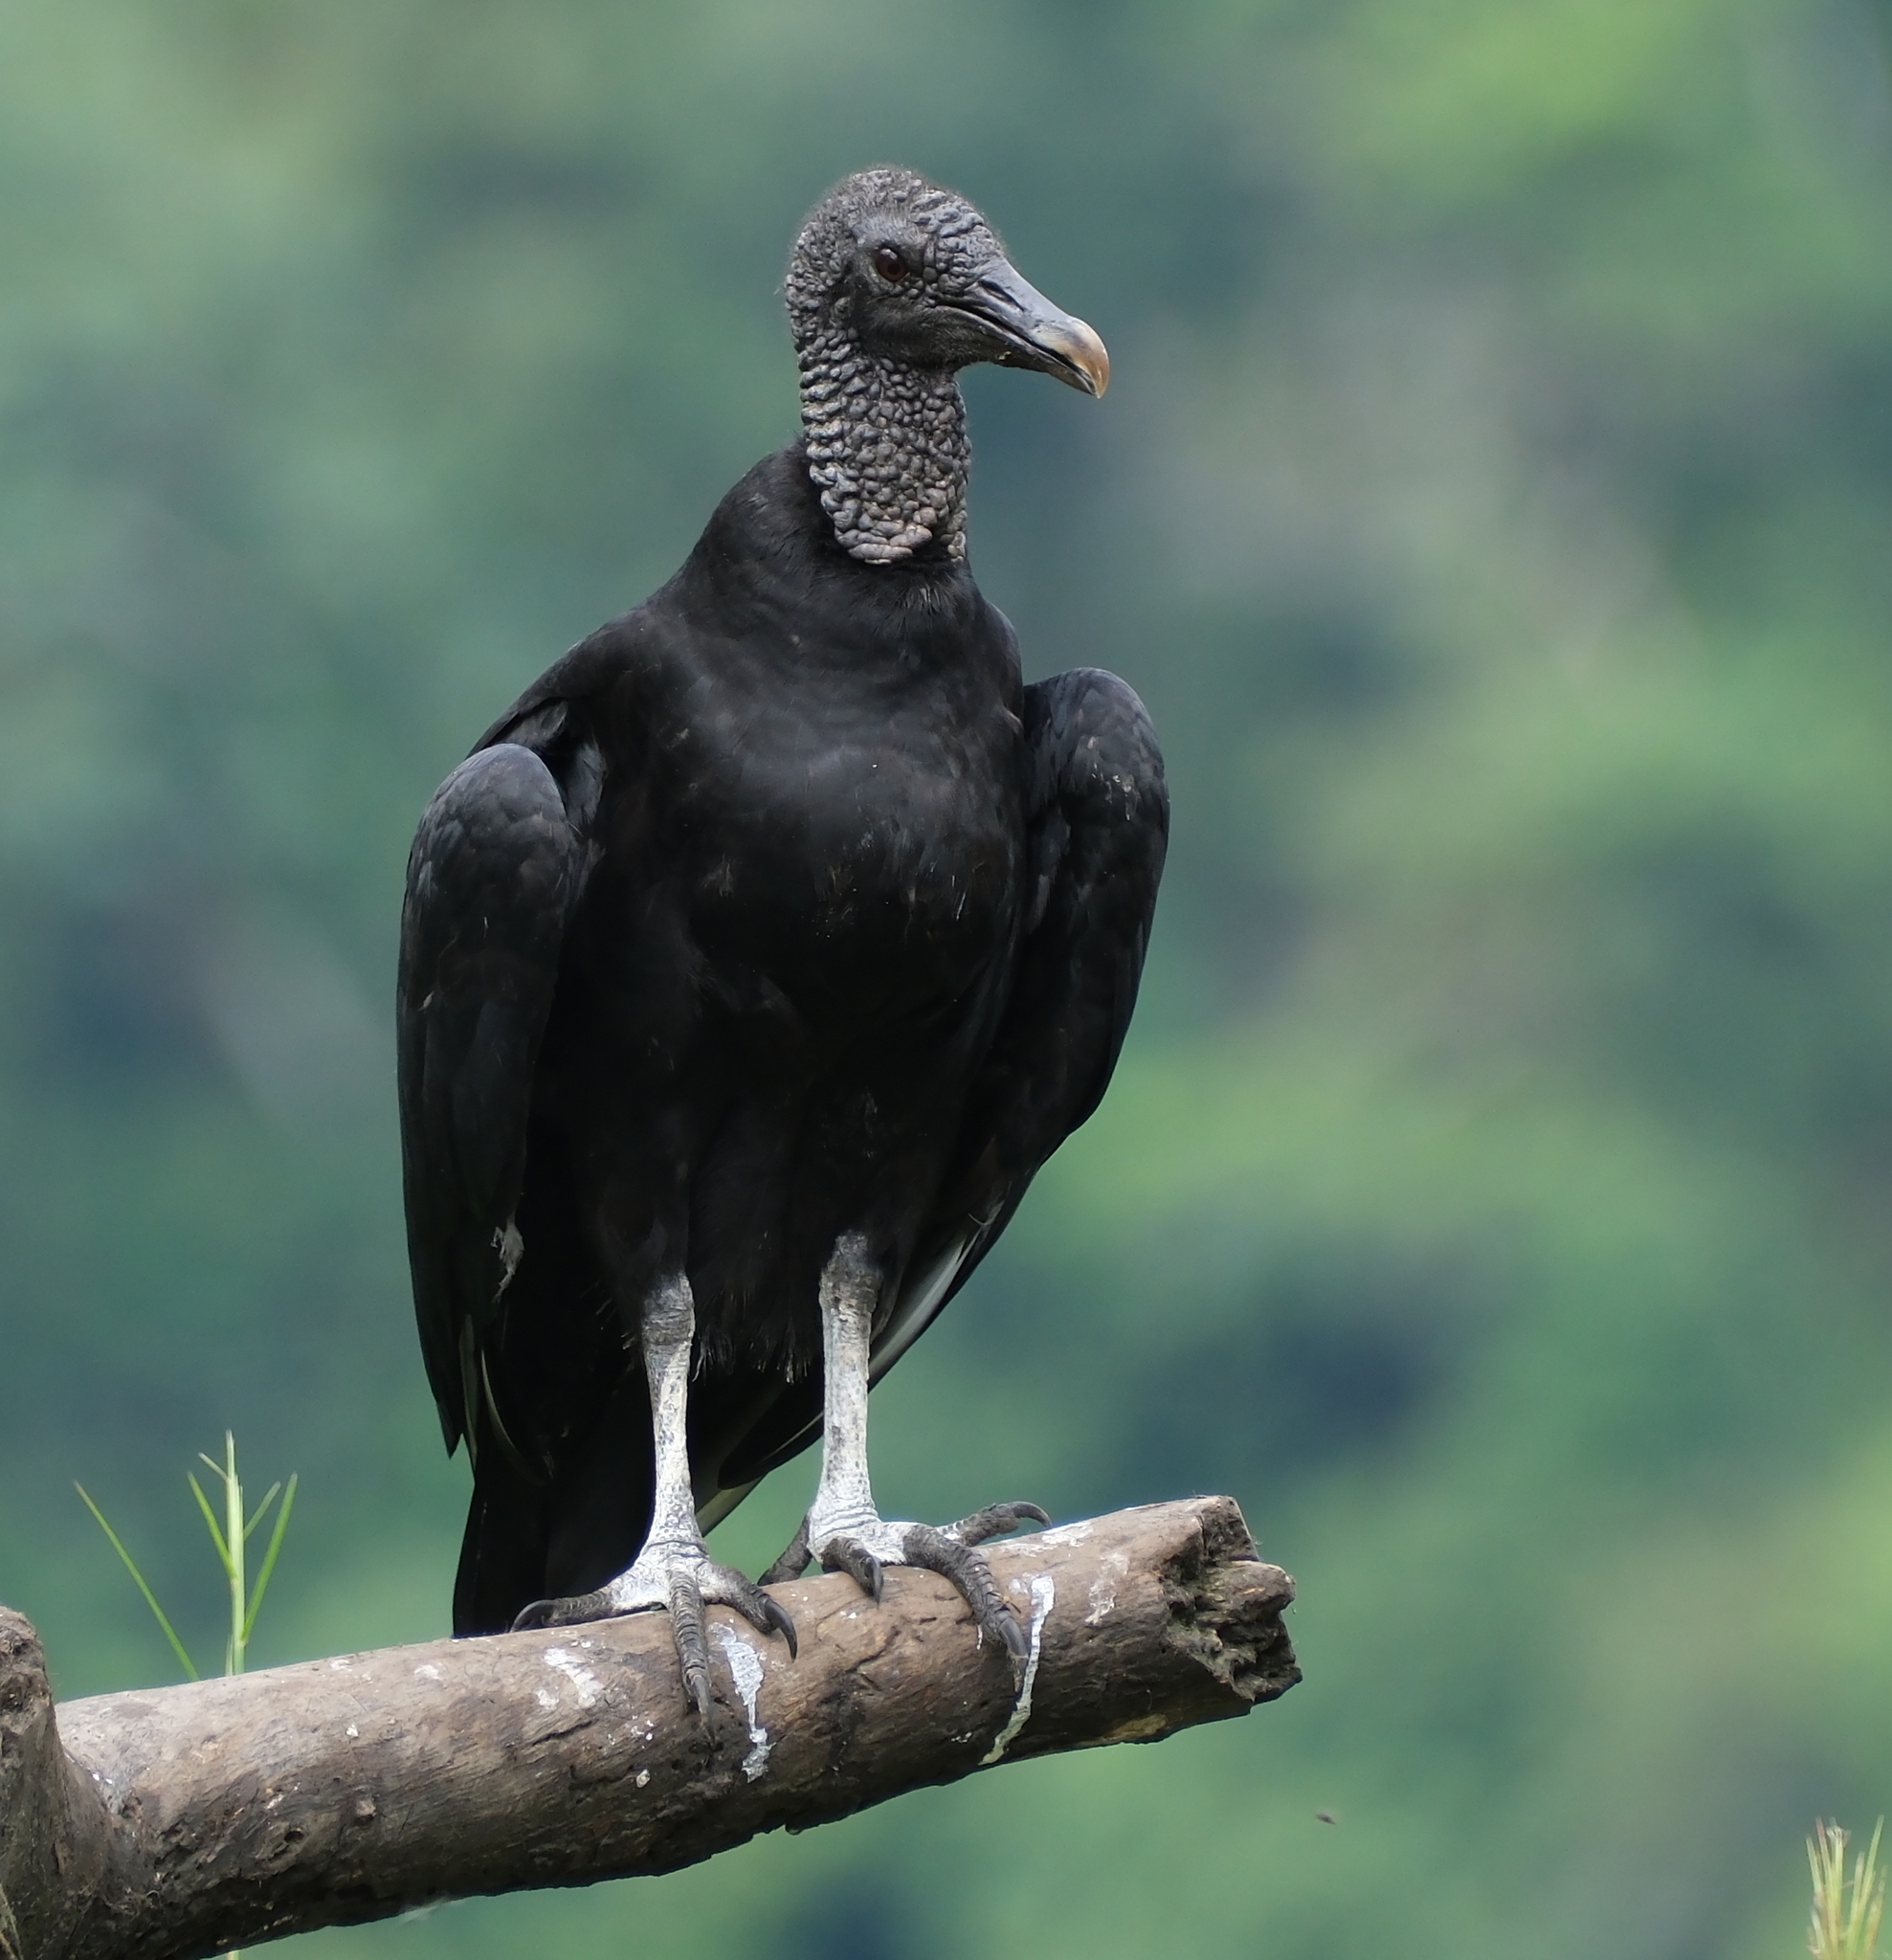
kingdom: Animalia
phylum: Chordata
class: Aves
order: Accipitriformes
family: Cathartidae
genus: Coragyps
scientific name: Coragyps atratus
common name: Black vulture
